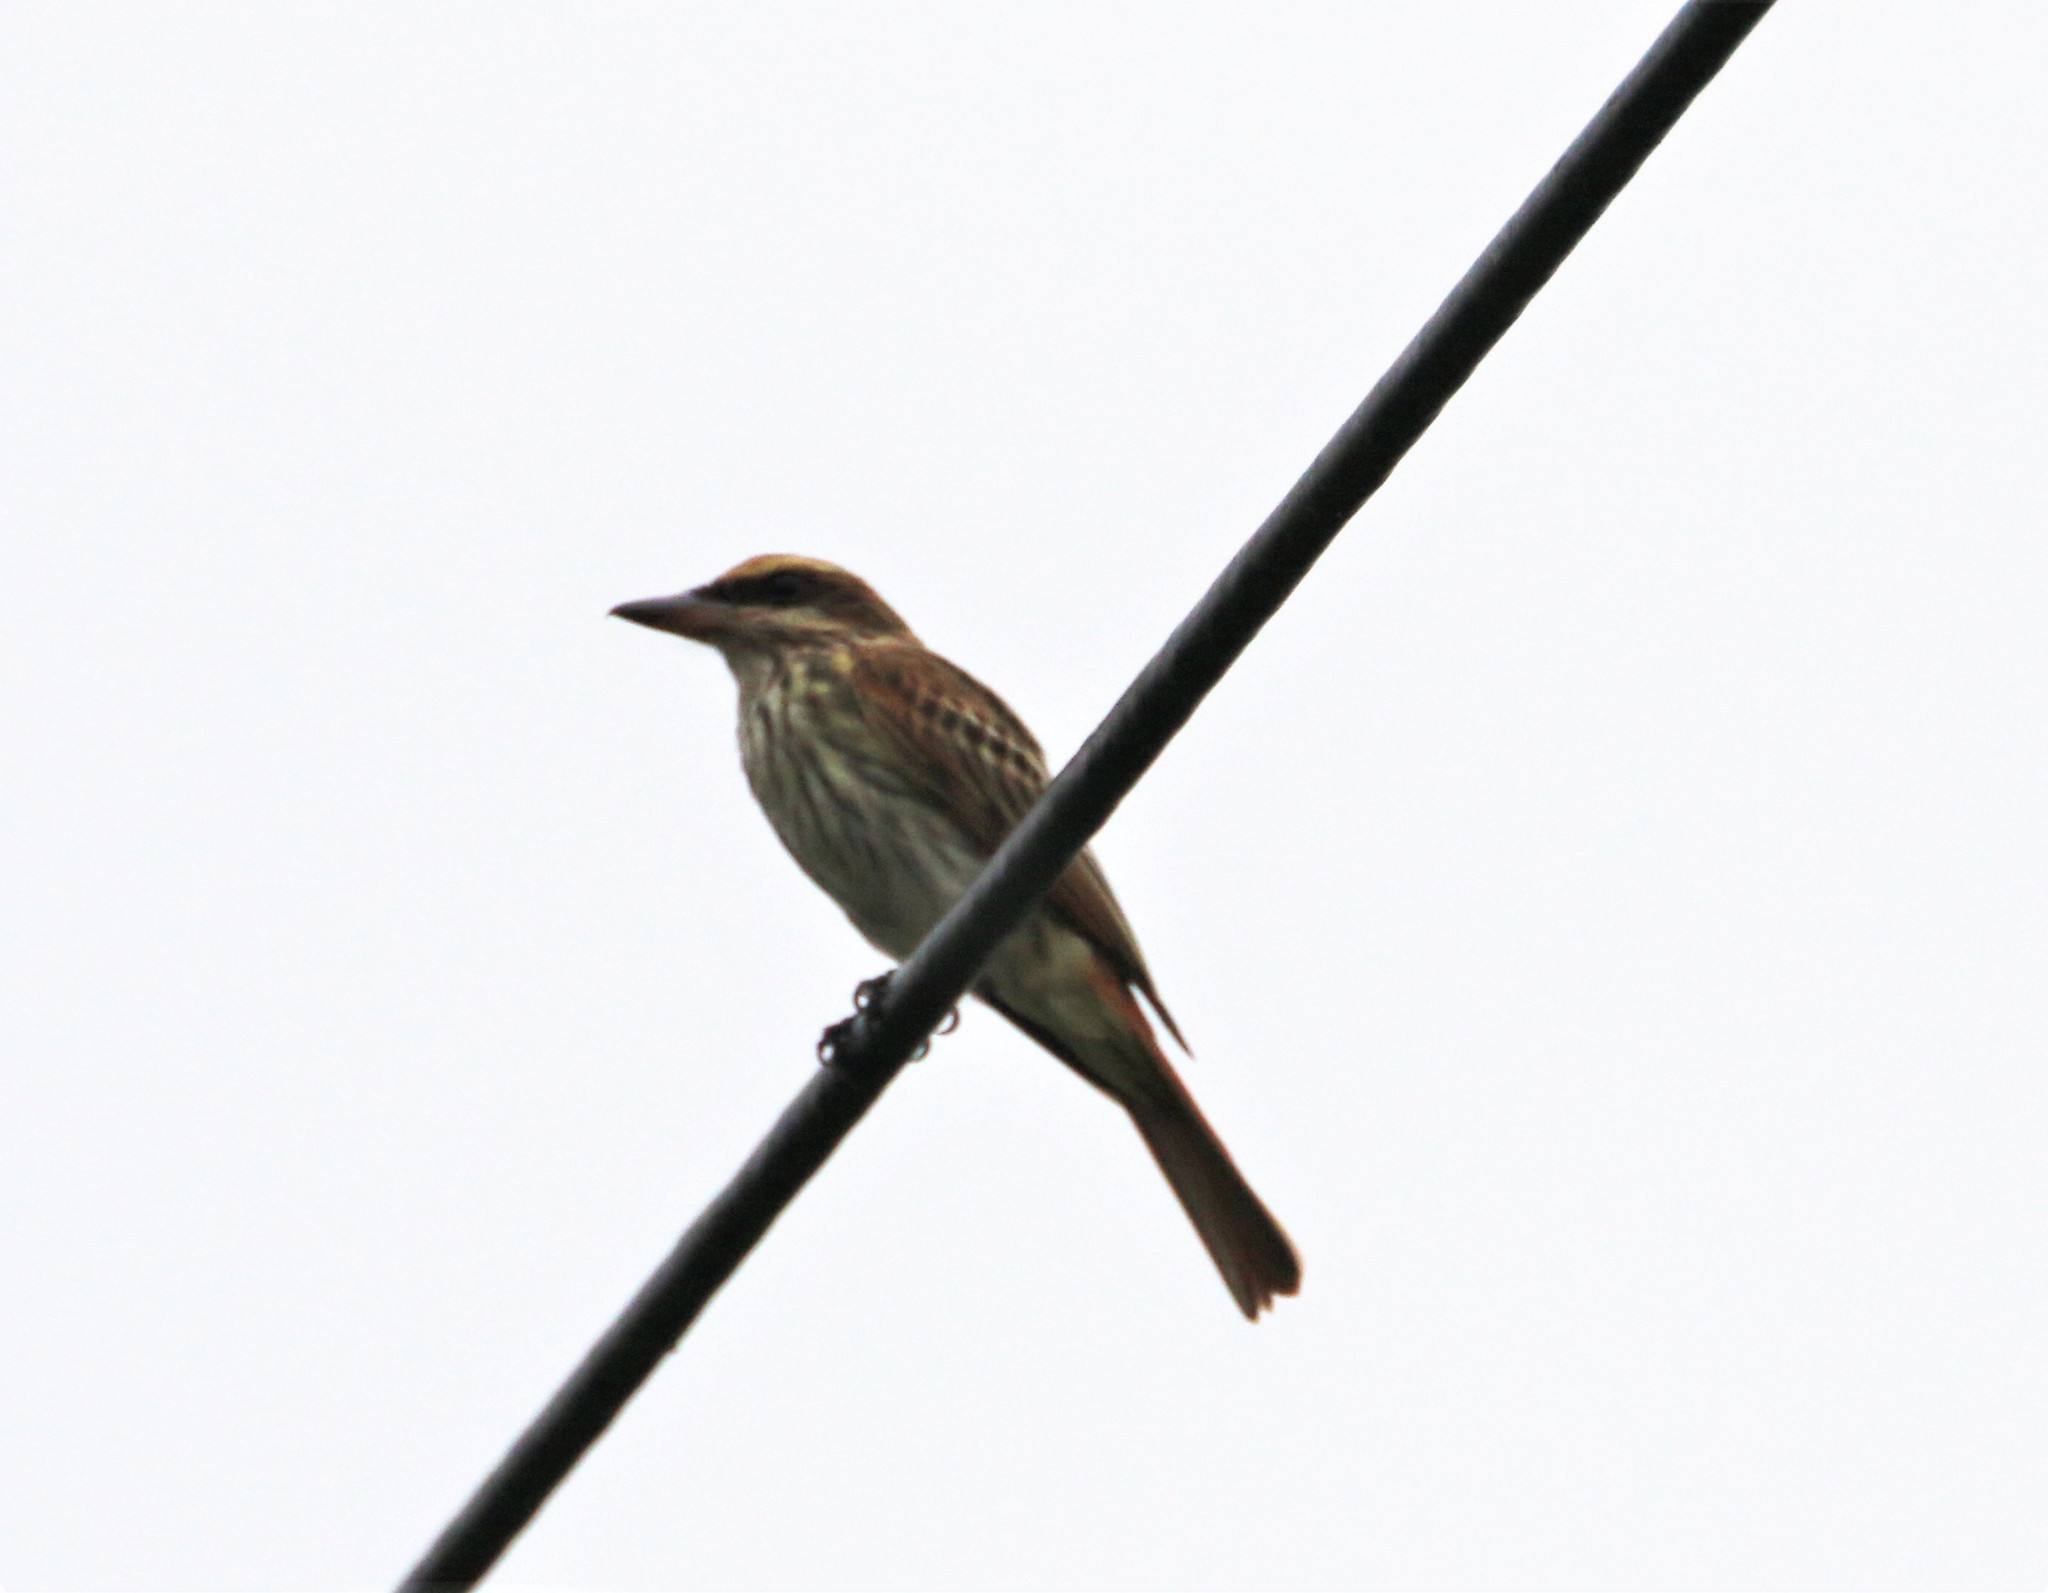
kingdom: Animalia
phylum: Chordata
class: Aves
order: Passeriformes
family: Tyrannidae
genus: Myiodynastes
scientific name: Myiodynastes maculatus
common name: Streaked flycatcher
